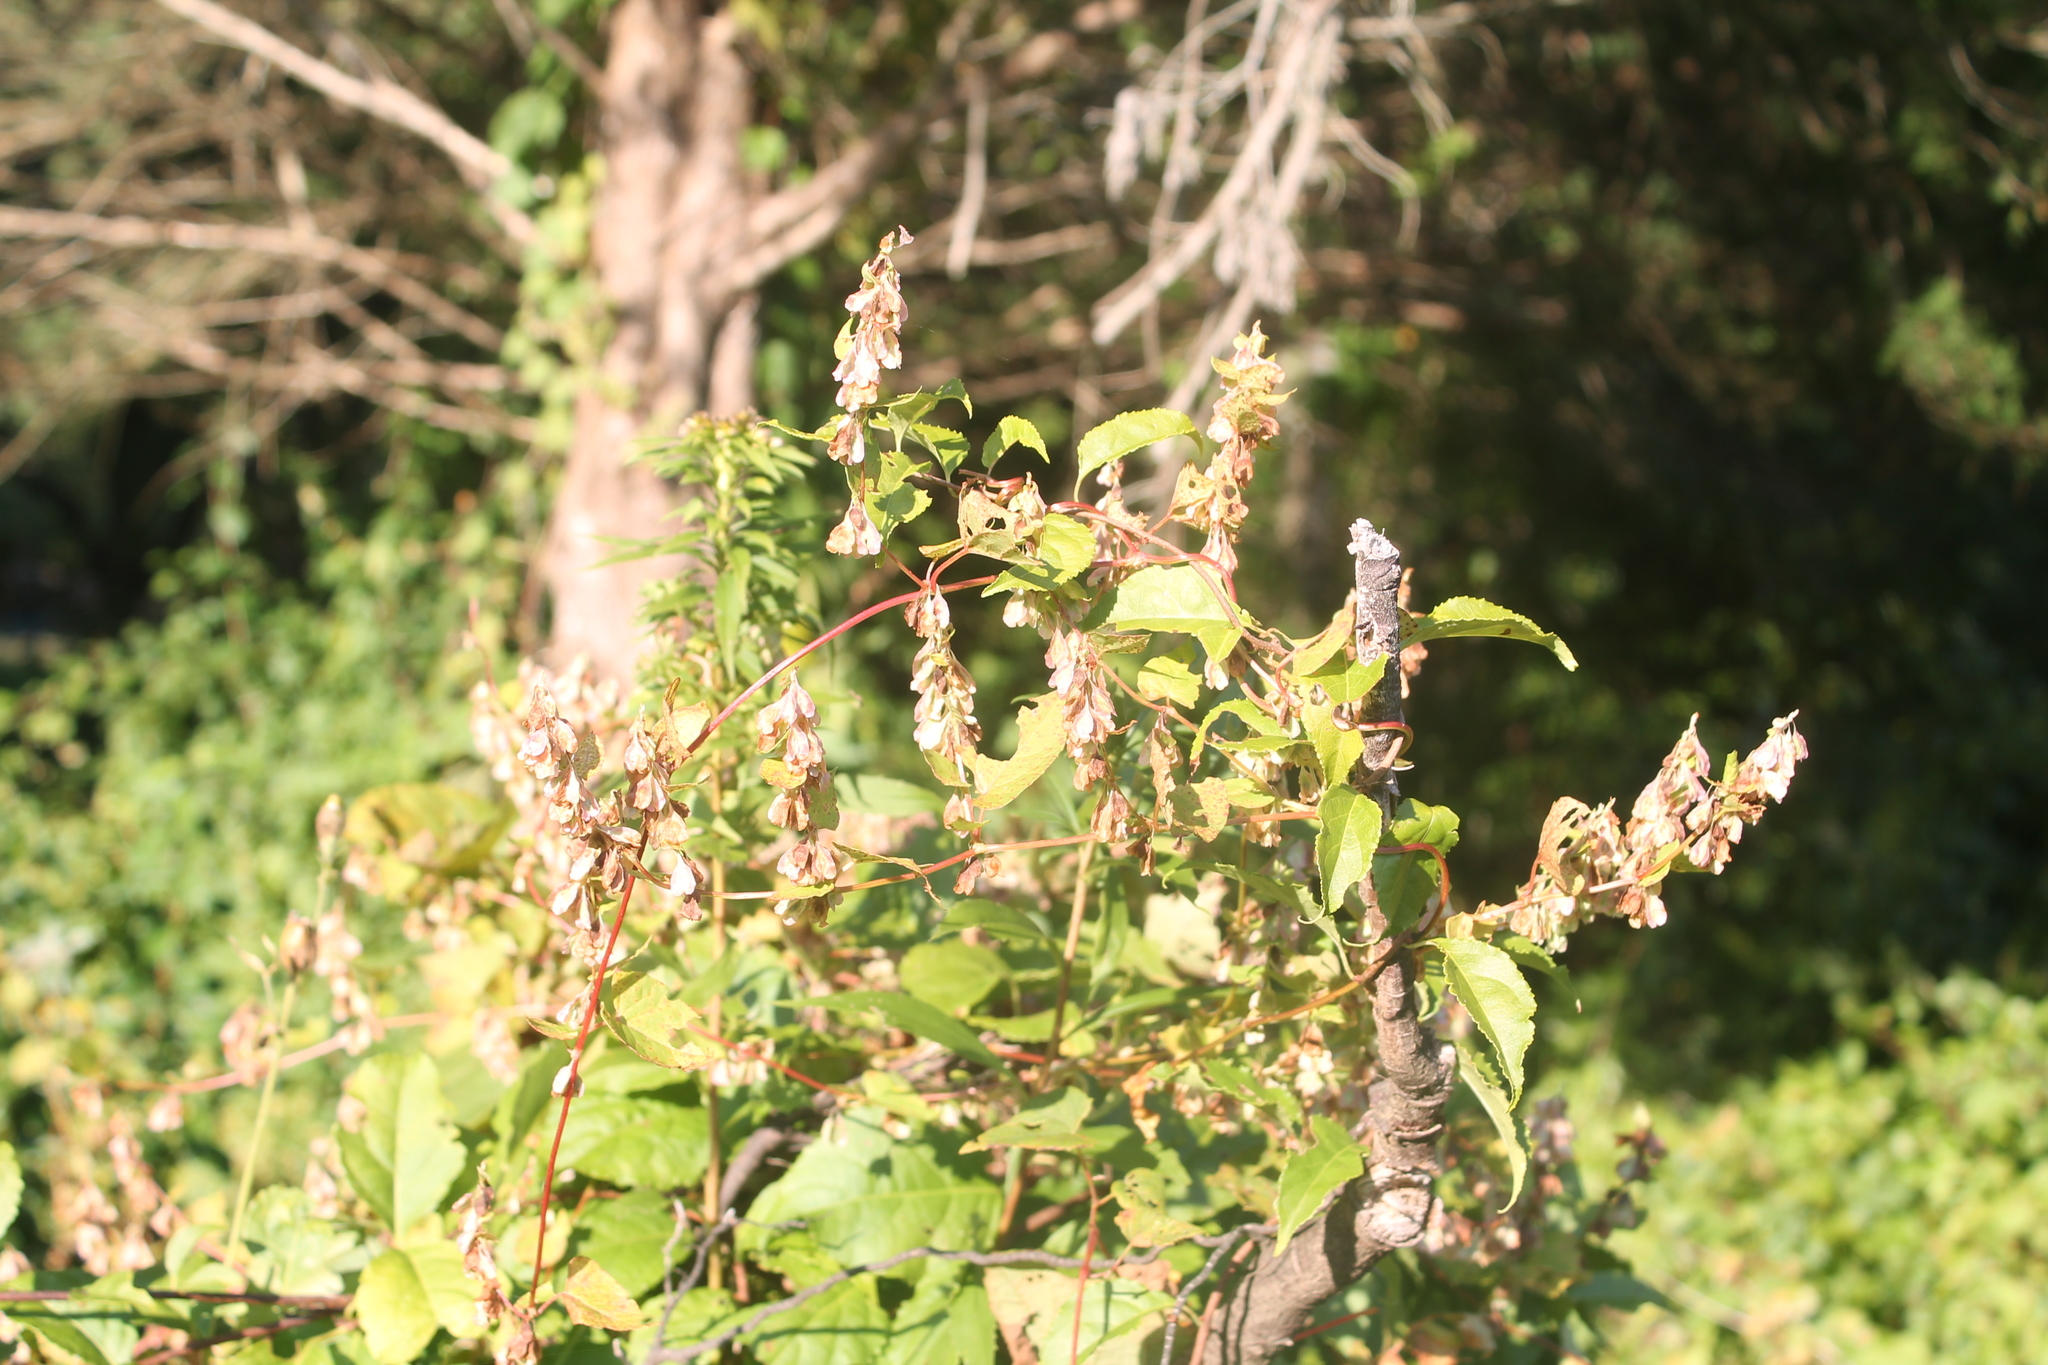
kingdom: Plantae
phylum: Tracheophyta
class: Magnoliopsida
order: Caryophyllales
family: Polygonaceae
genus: Fallopia
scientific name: Fallopia scandens
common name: Climbing false buckwheat
